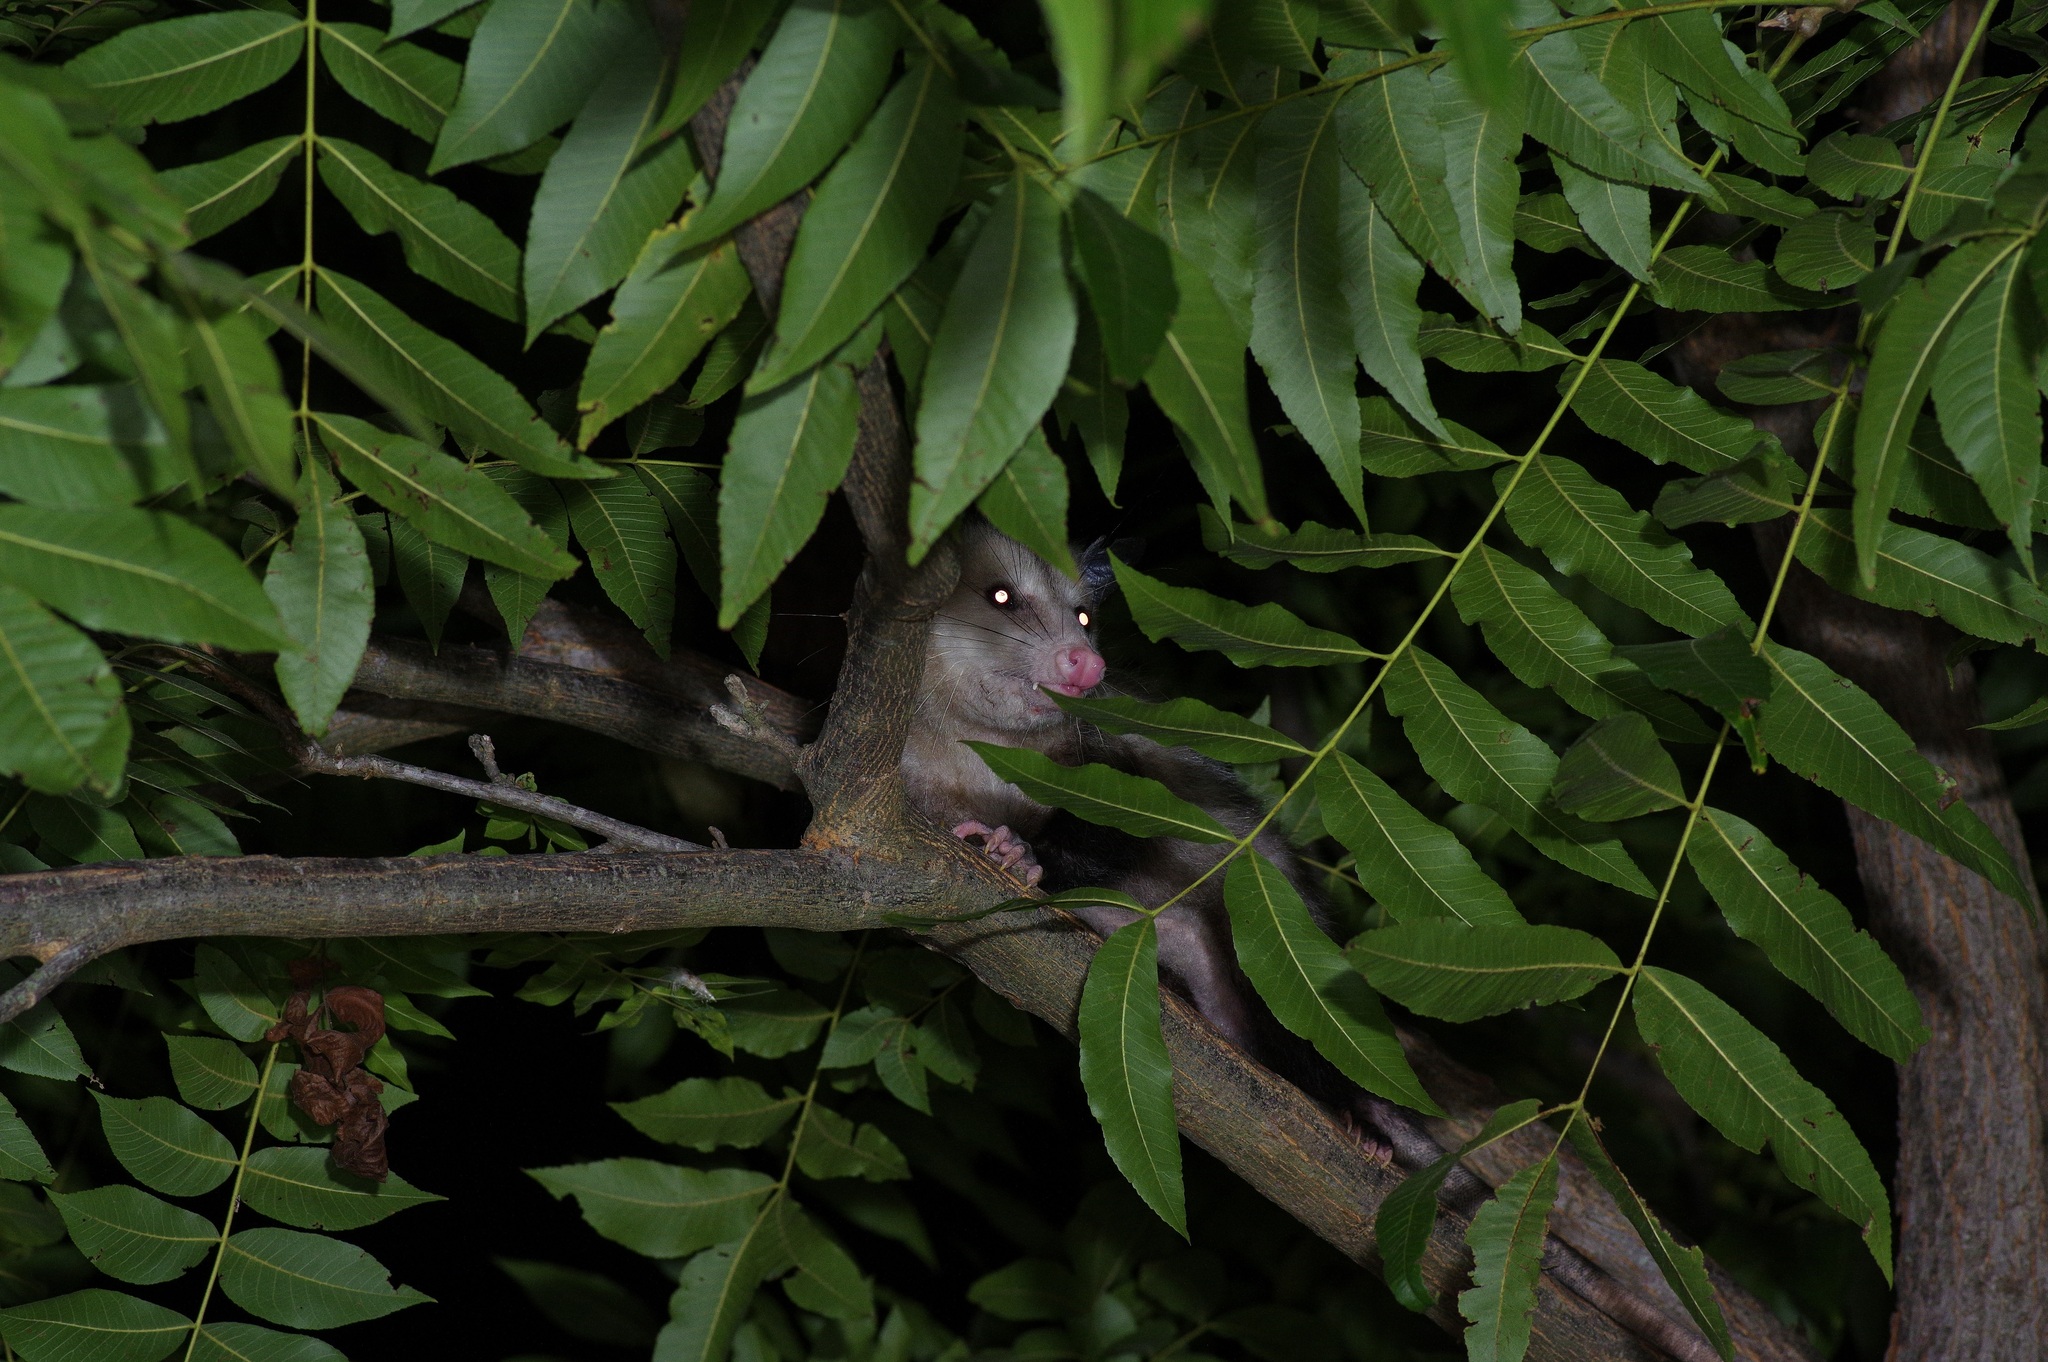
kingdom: Animalia
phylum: Chordata
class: Mammalia
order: Didelphimorphia
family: Didelphidae
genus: Didelphis
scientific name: Didelphis virginiana
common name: Virginia opossum
